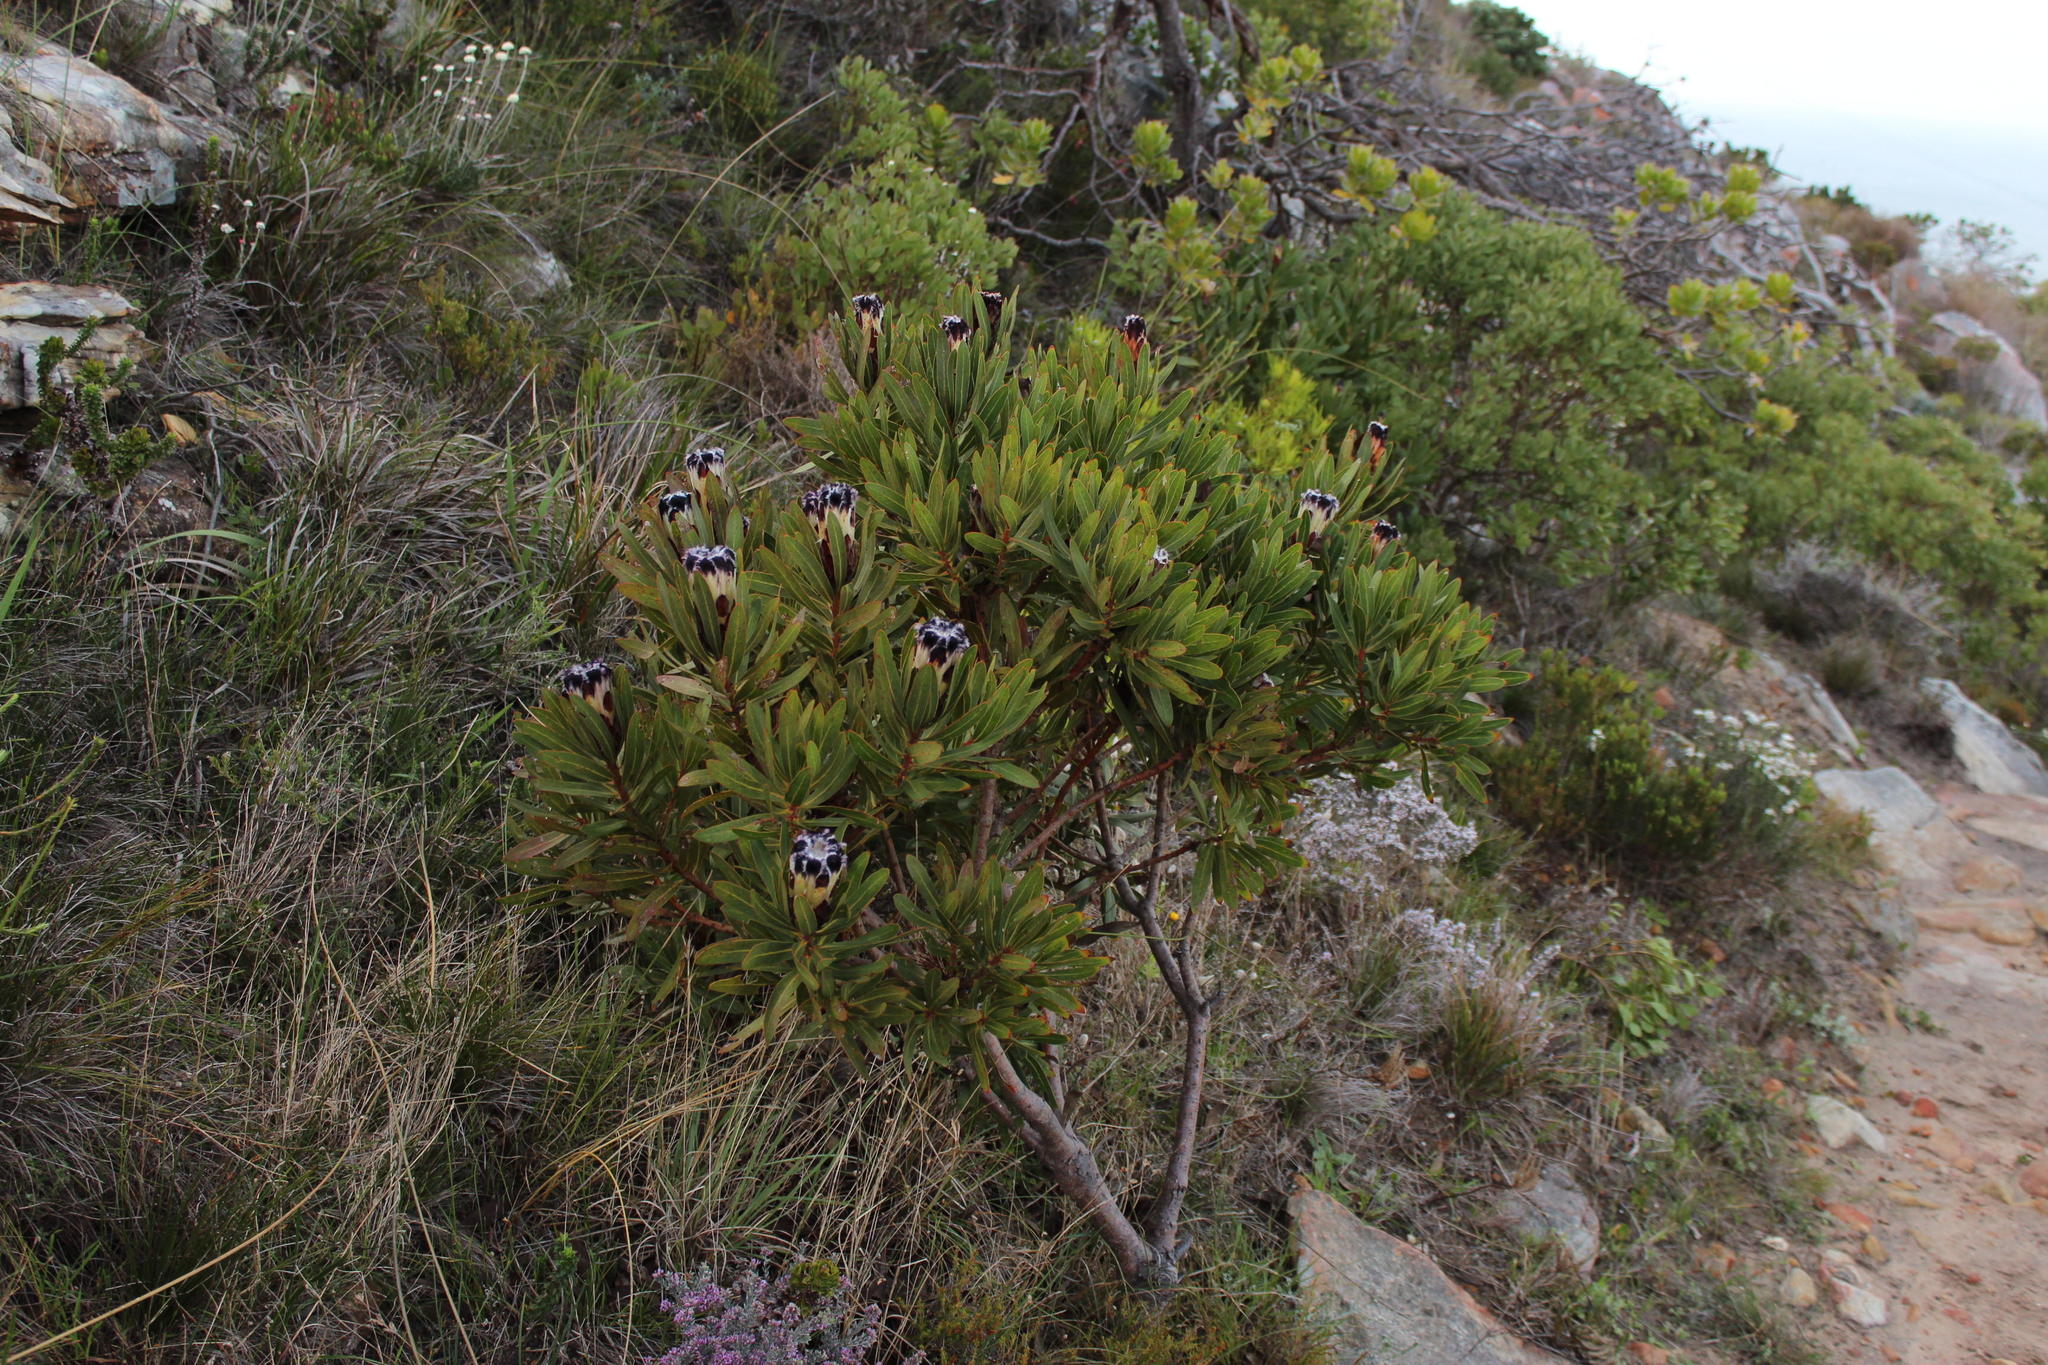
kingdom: Plantae
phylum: Tracheophyta
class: Magnoliopsida
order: Proteales
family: Proteaceae
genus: Protea
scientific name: Protea lepidocarpodendron
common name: Black-bearded protea
